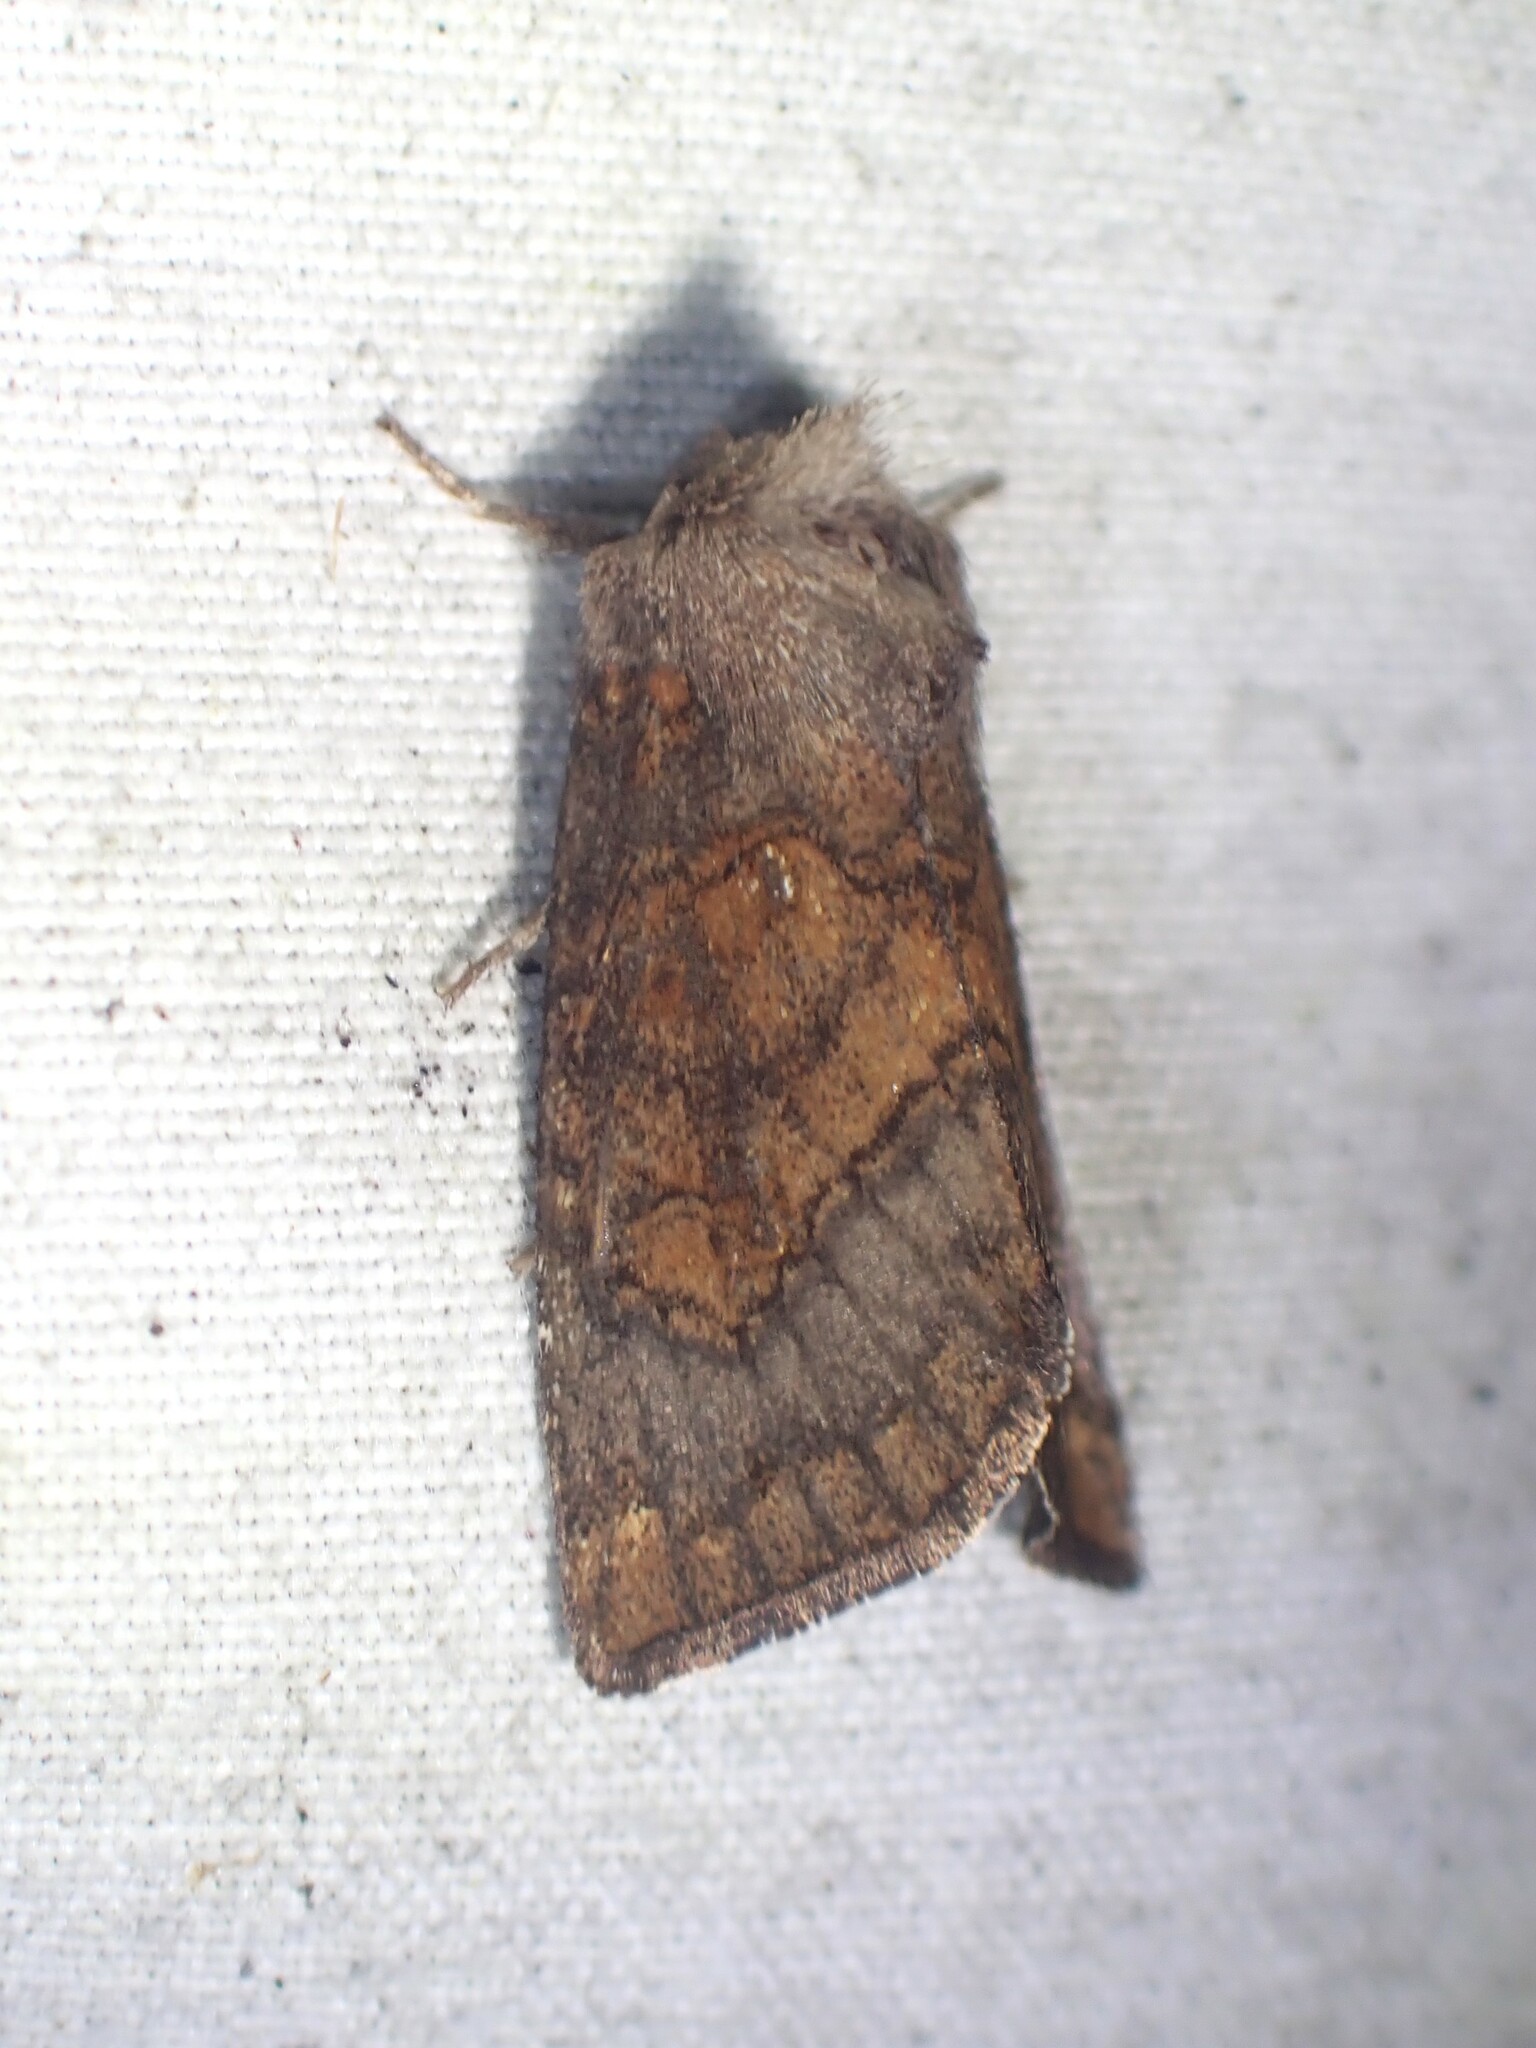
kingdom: Animalia
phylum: Arthropoda
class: Insecta
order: Lepidoptera
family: Noctuidae
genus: Papaipema
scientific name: Papaipema unimoda
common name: Meadow rue borer moth
